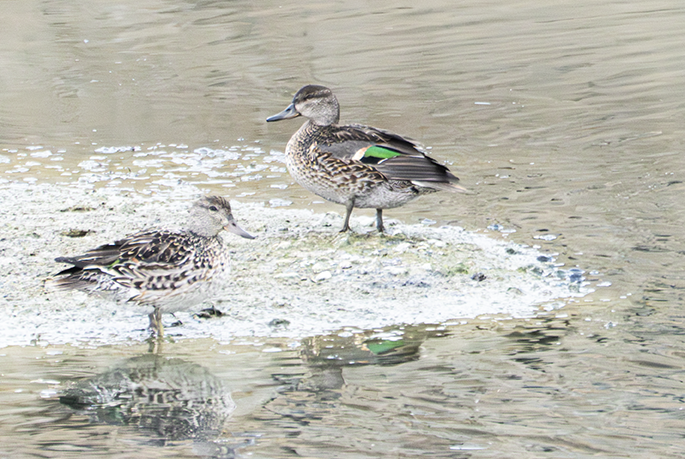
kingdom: Animalia
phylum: Chordata
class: Aves
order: Anseriformes
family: Anatidae
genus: Anas
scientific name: Anas crecca
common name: Eurasian teal
